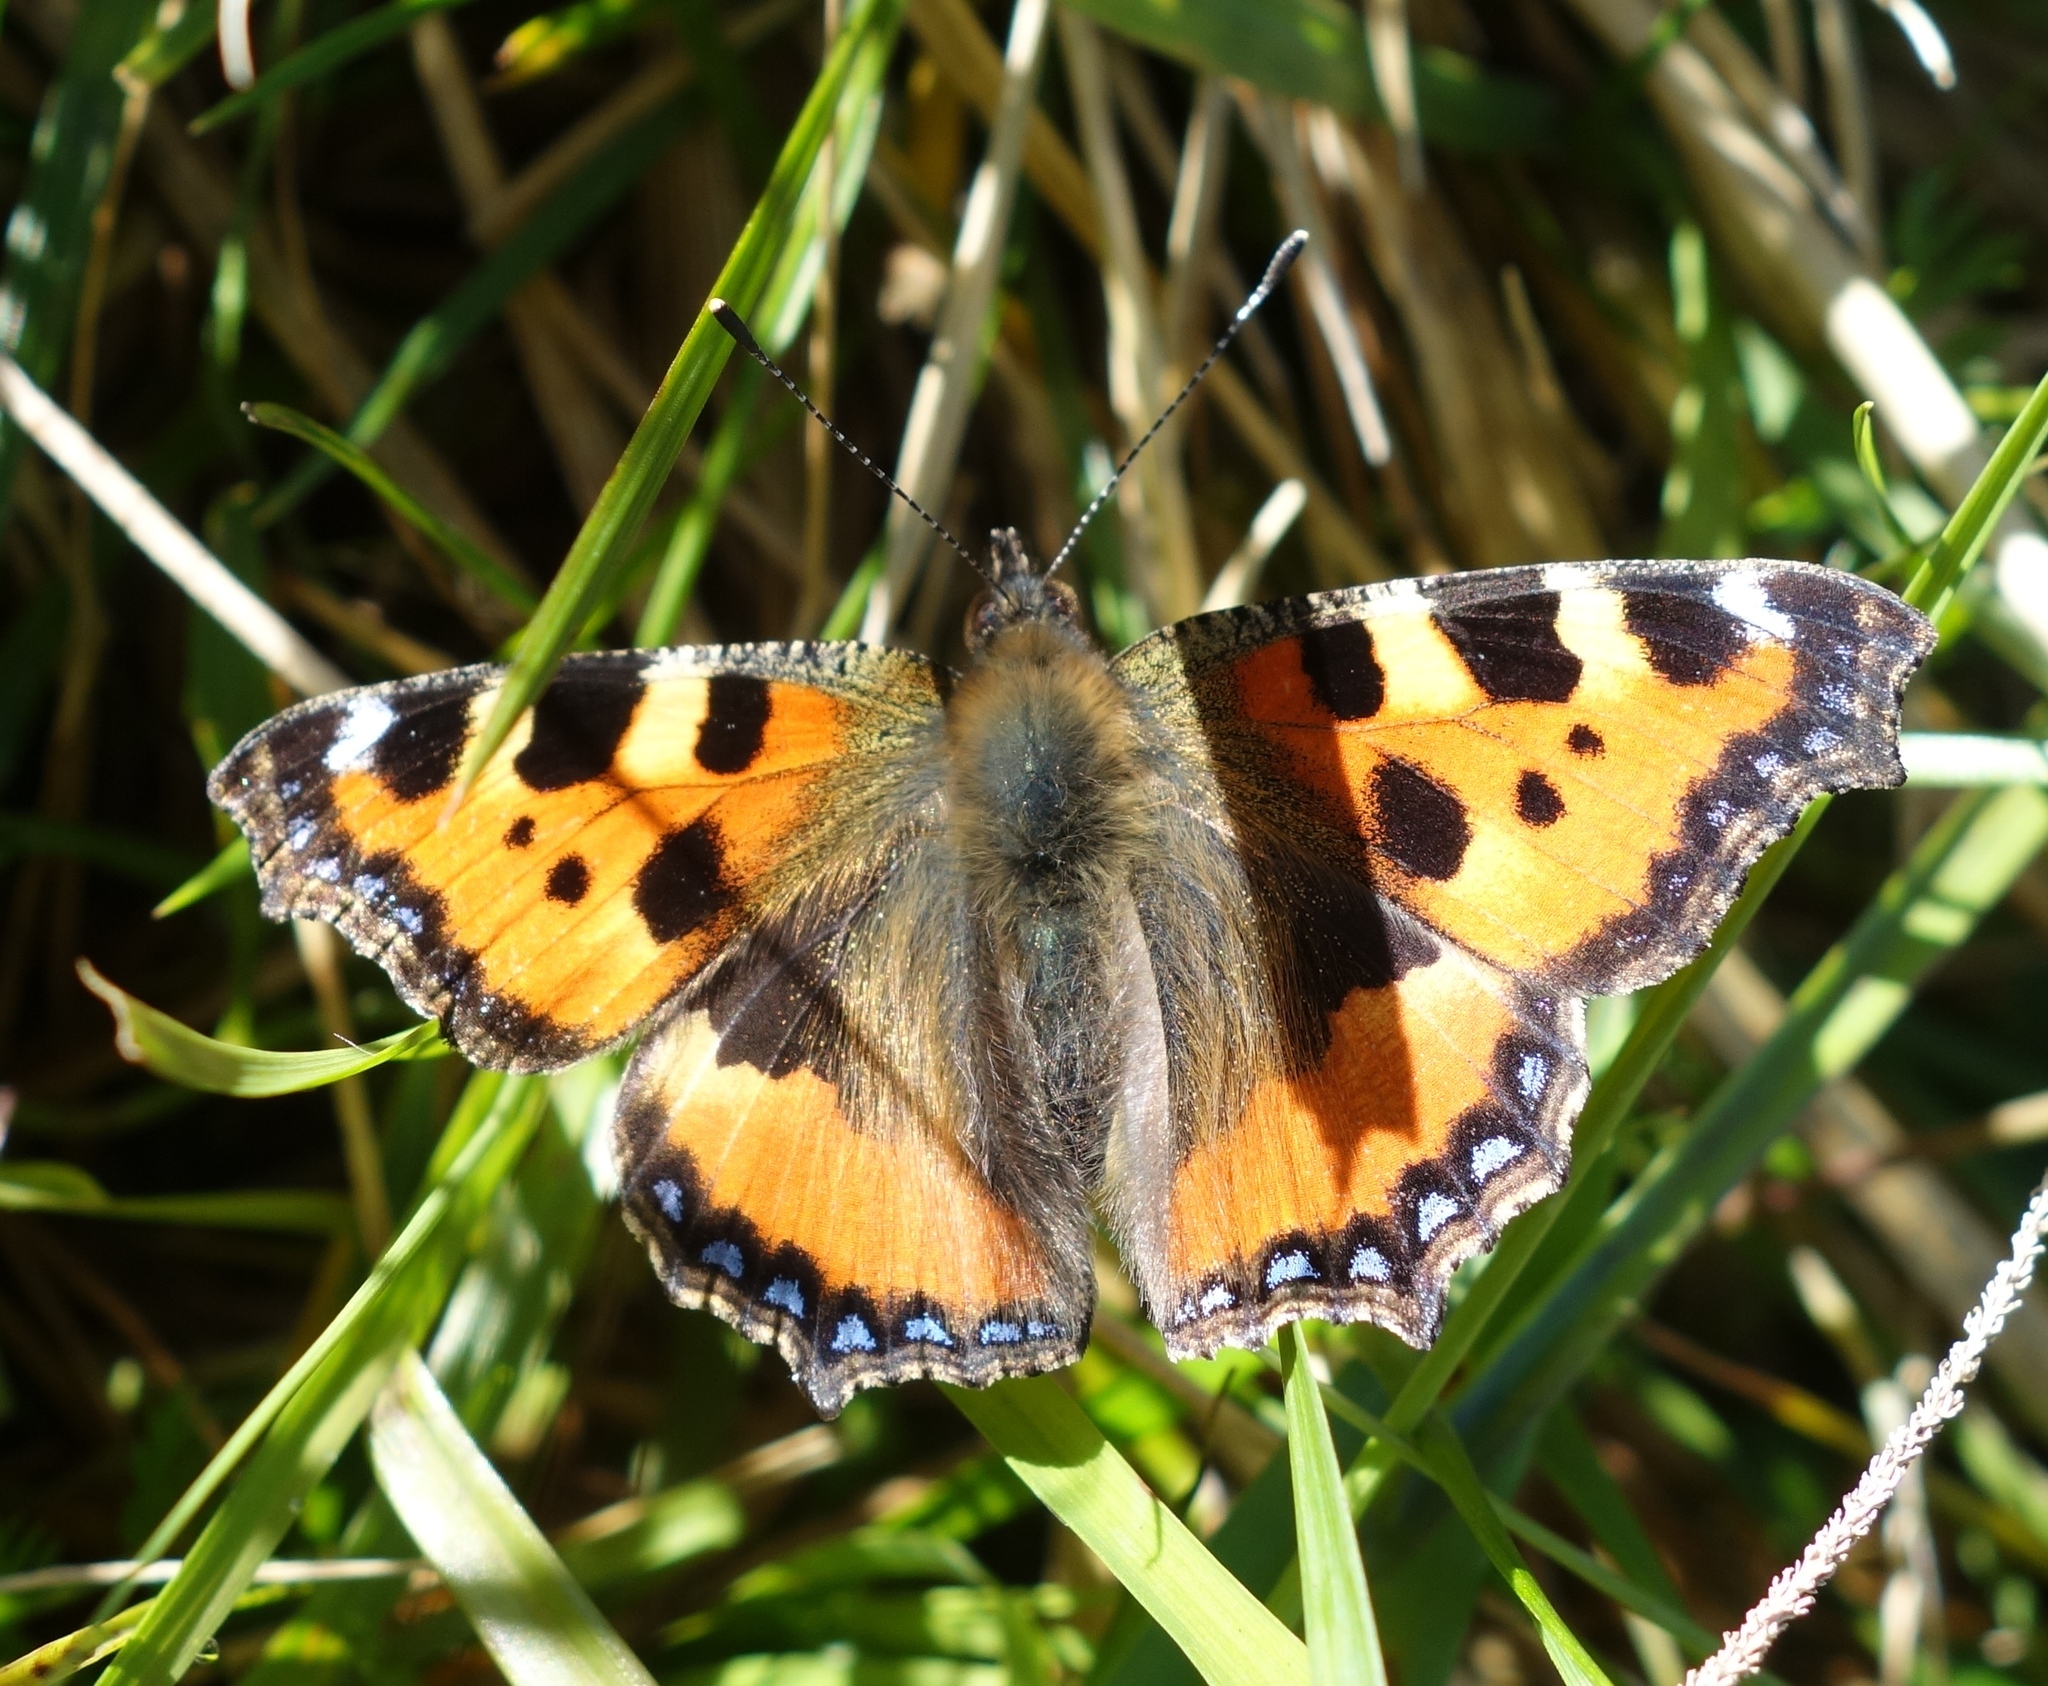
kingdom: Animalia
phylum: Arthropoda
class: Insecta
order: Lepidoptera
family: Nymphalidae
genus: Aglais
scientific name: Aglais urticae
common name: Small tortoiseshell
